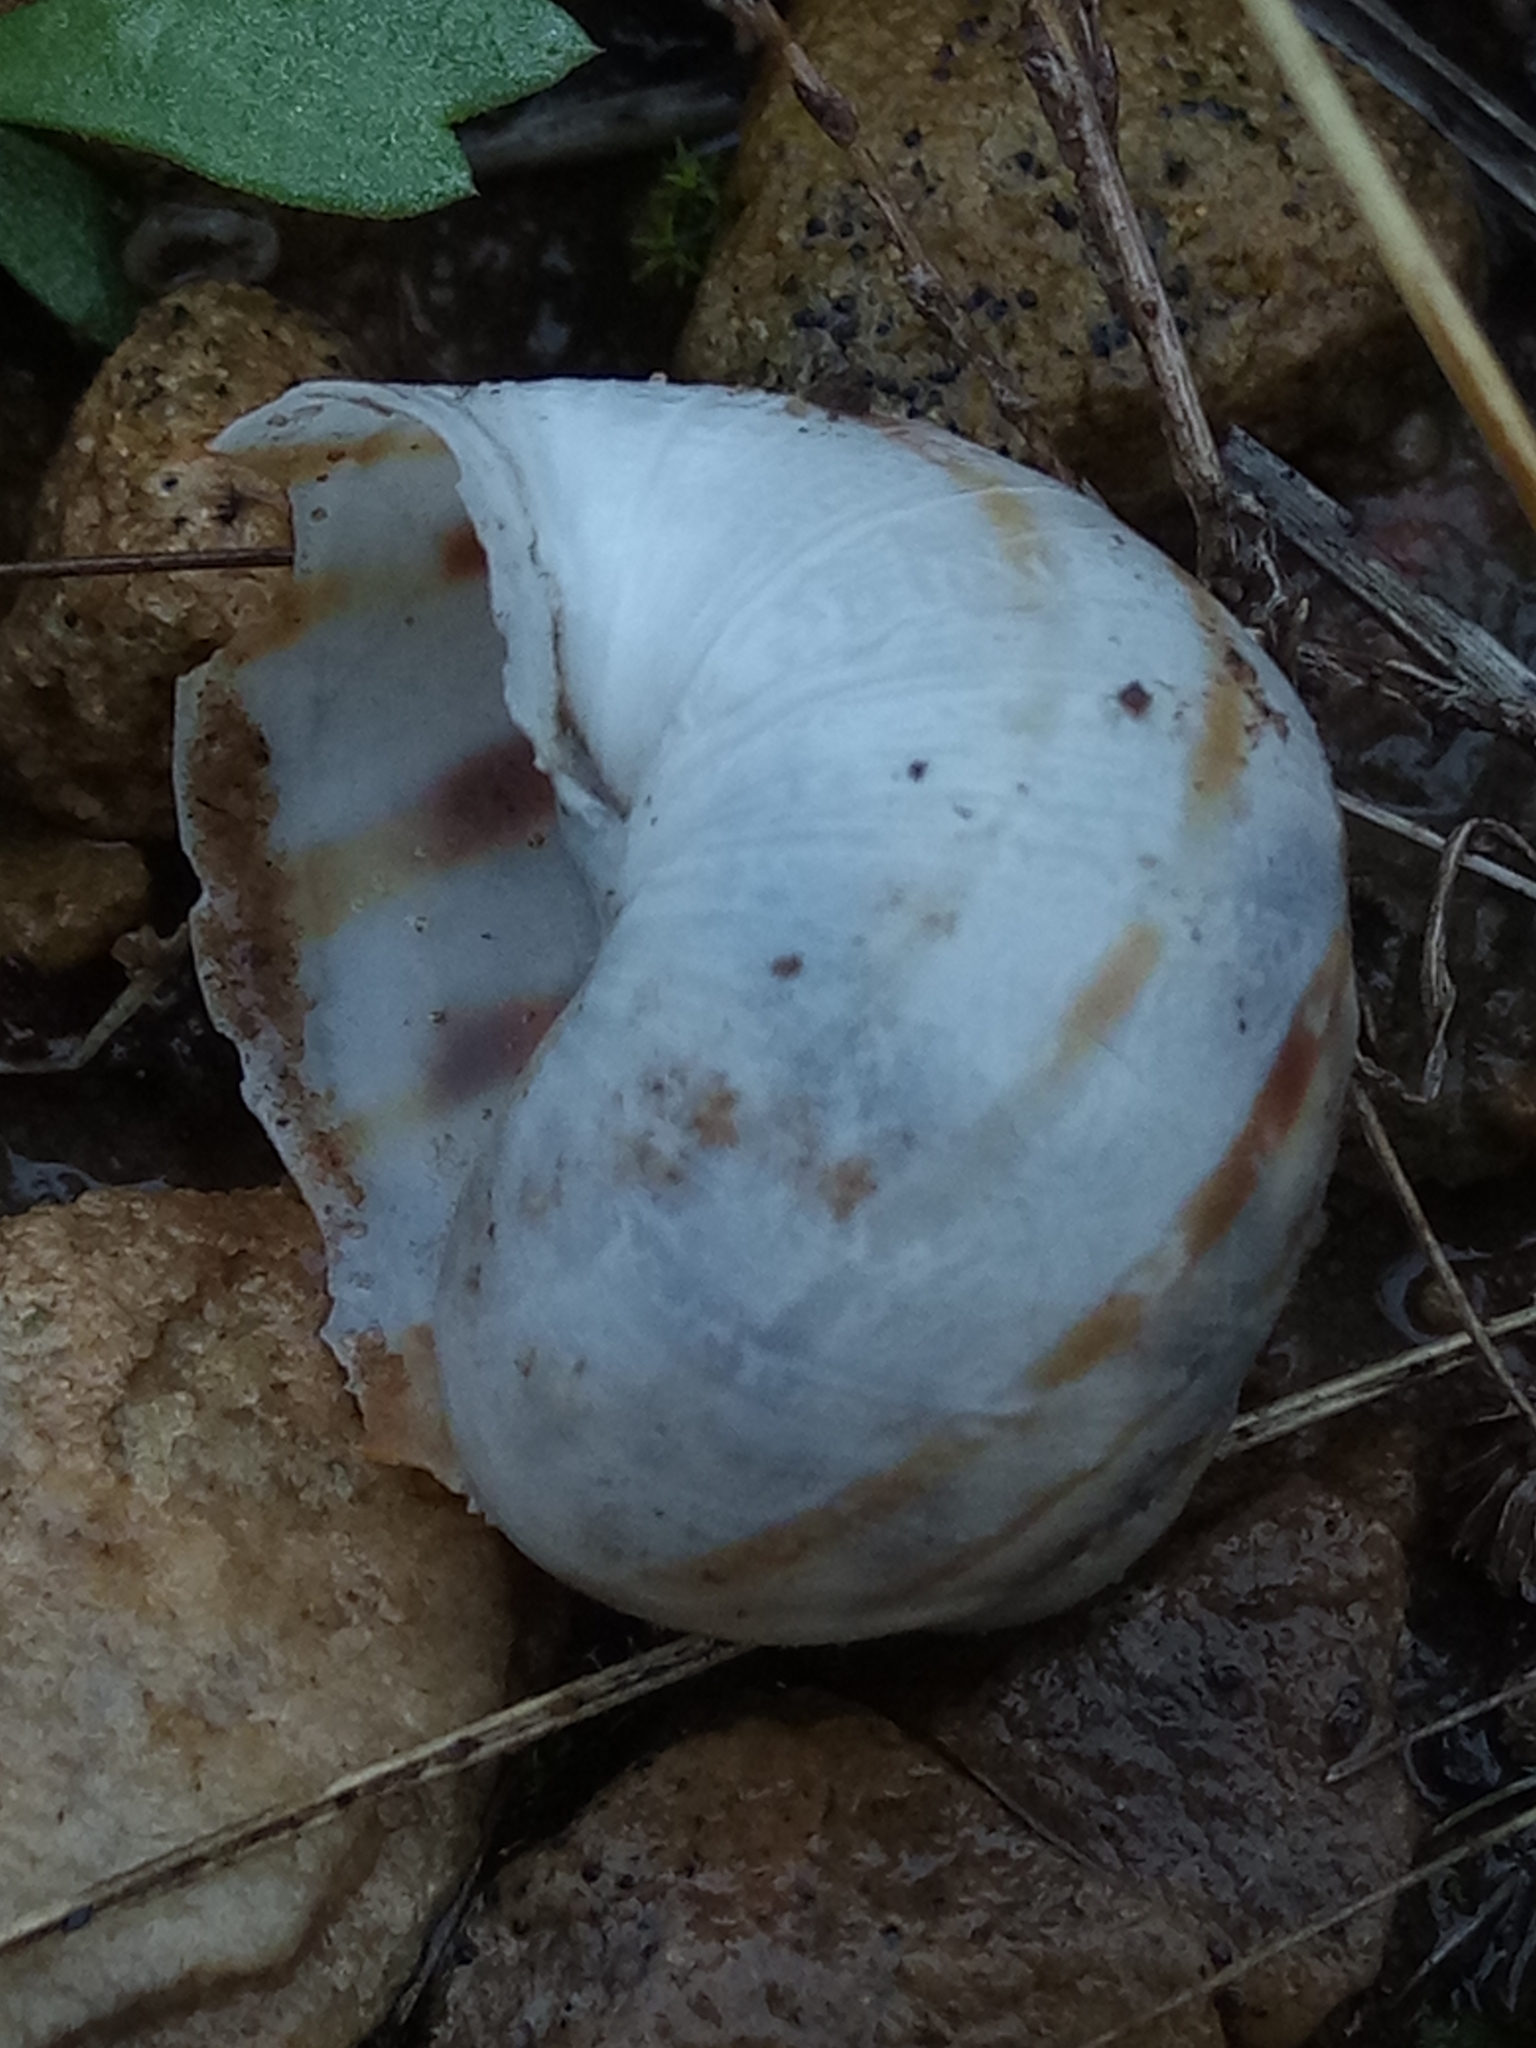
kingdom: Animalia
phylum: Mollusca
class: Gastropoda
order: Stylommatophora
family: Helicidae
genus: Cornu
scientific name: Cornu aspersum
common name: Brown garden snail
